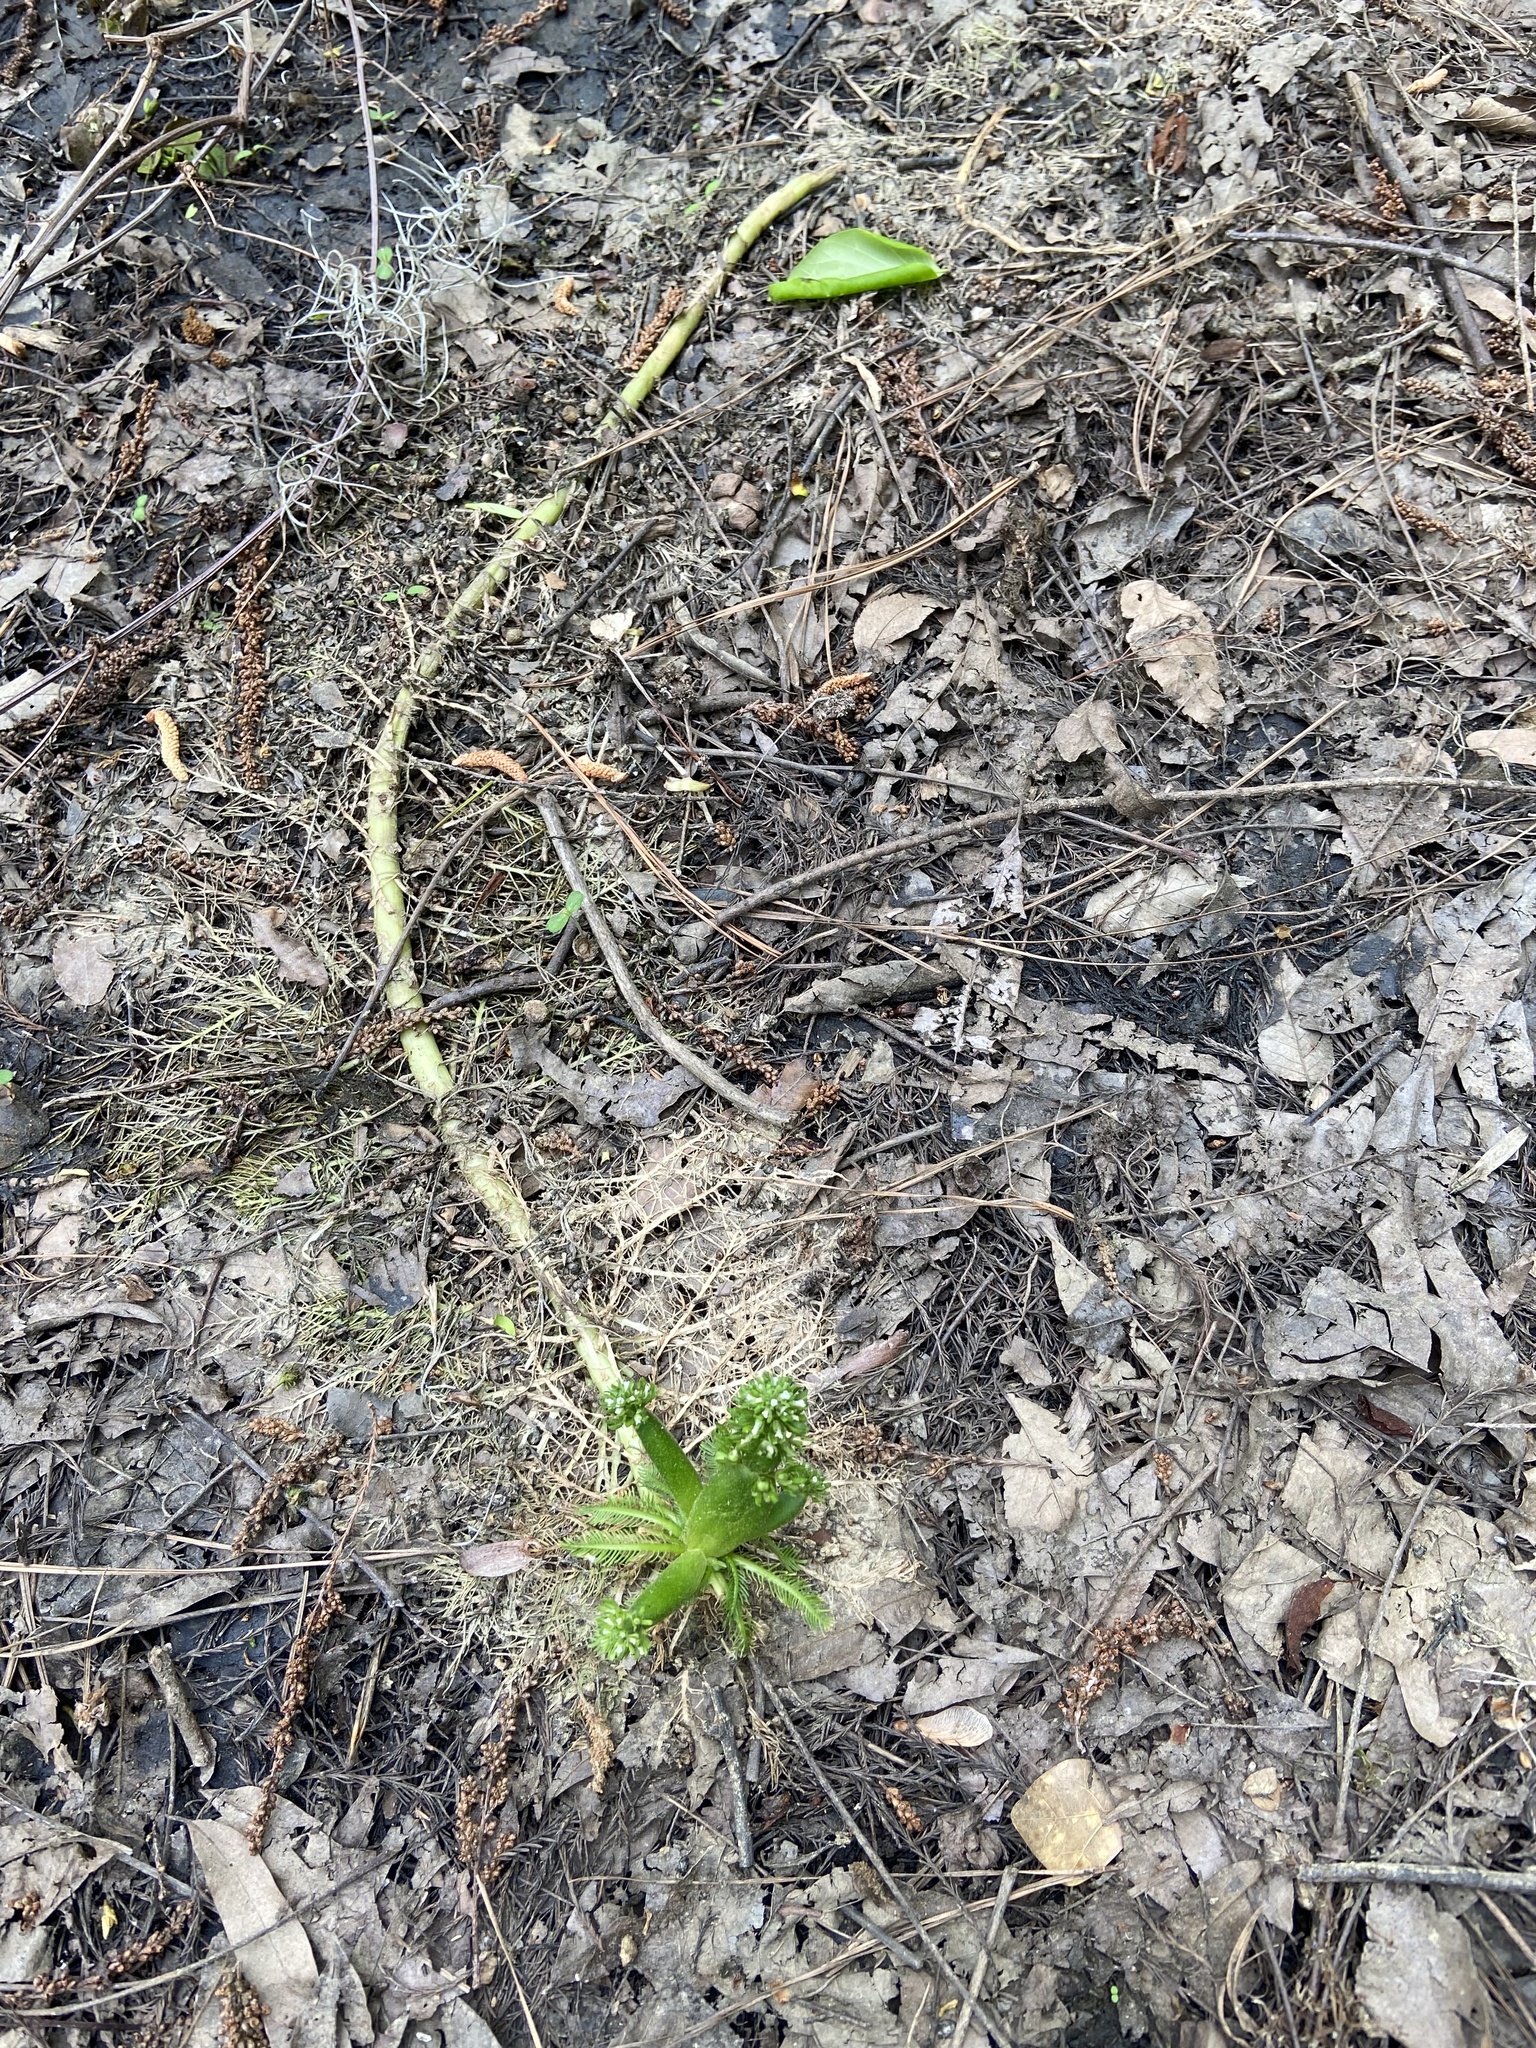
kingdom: Plantae
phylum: Tracheophyta
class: Magnoliopsida
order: Ericales
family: Primulaceae
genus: Hottonia
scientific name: Hottonia inflata
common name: American featherfoil
